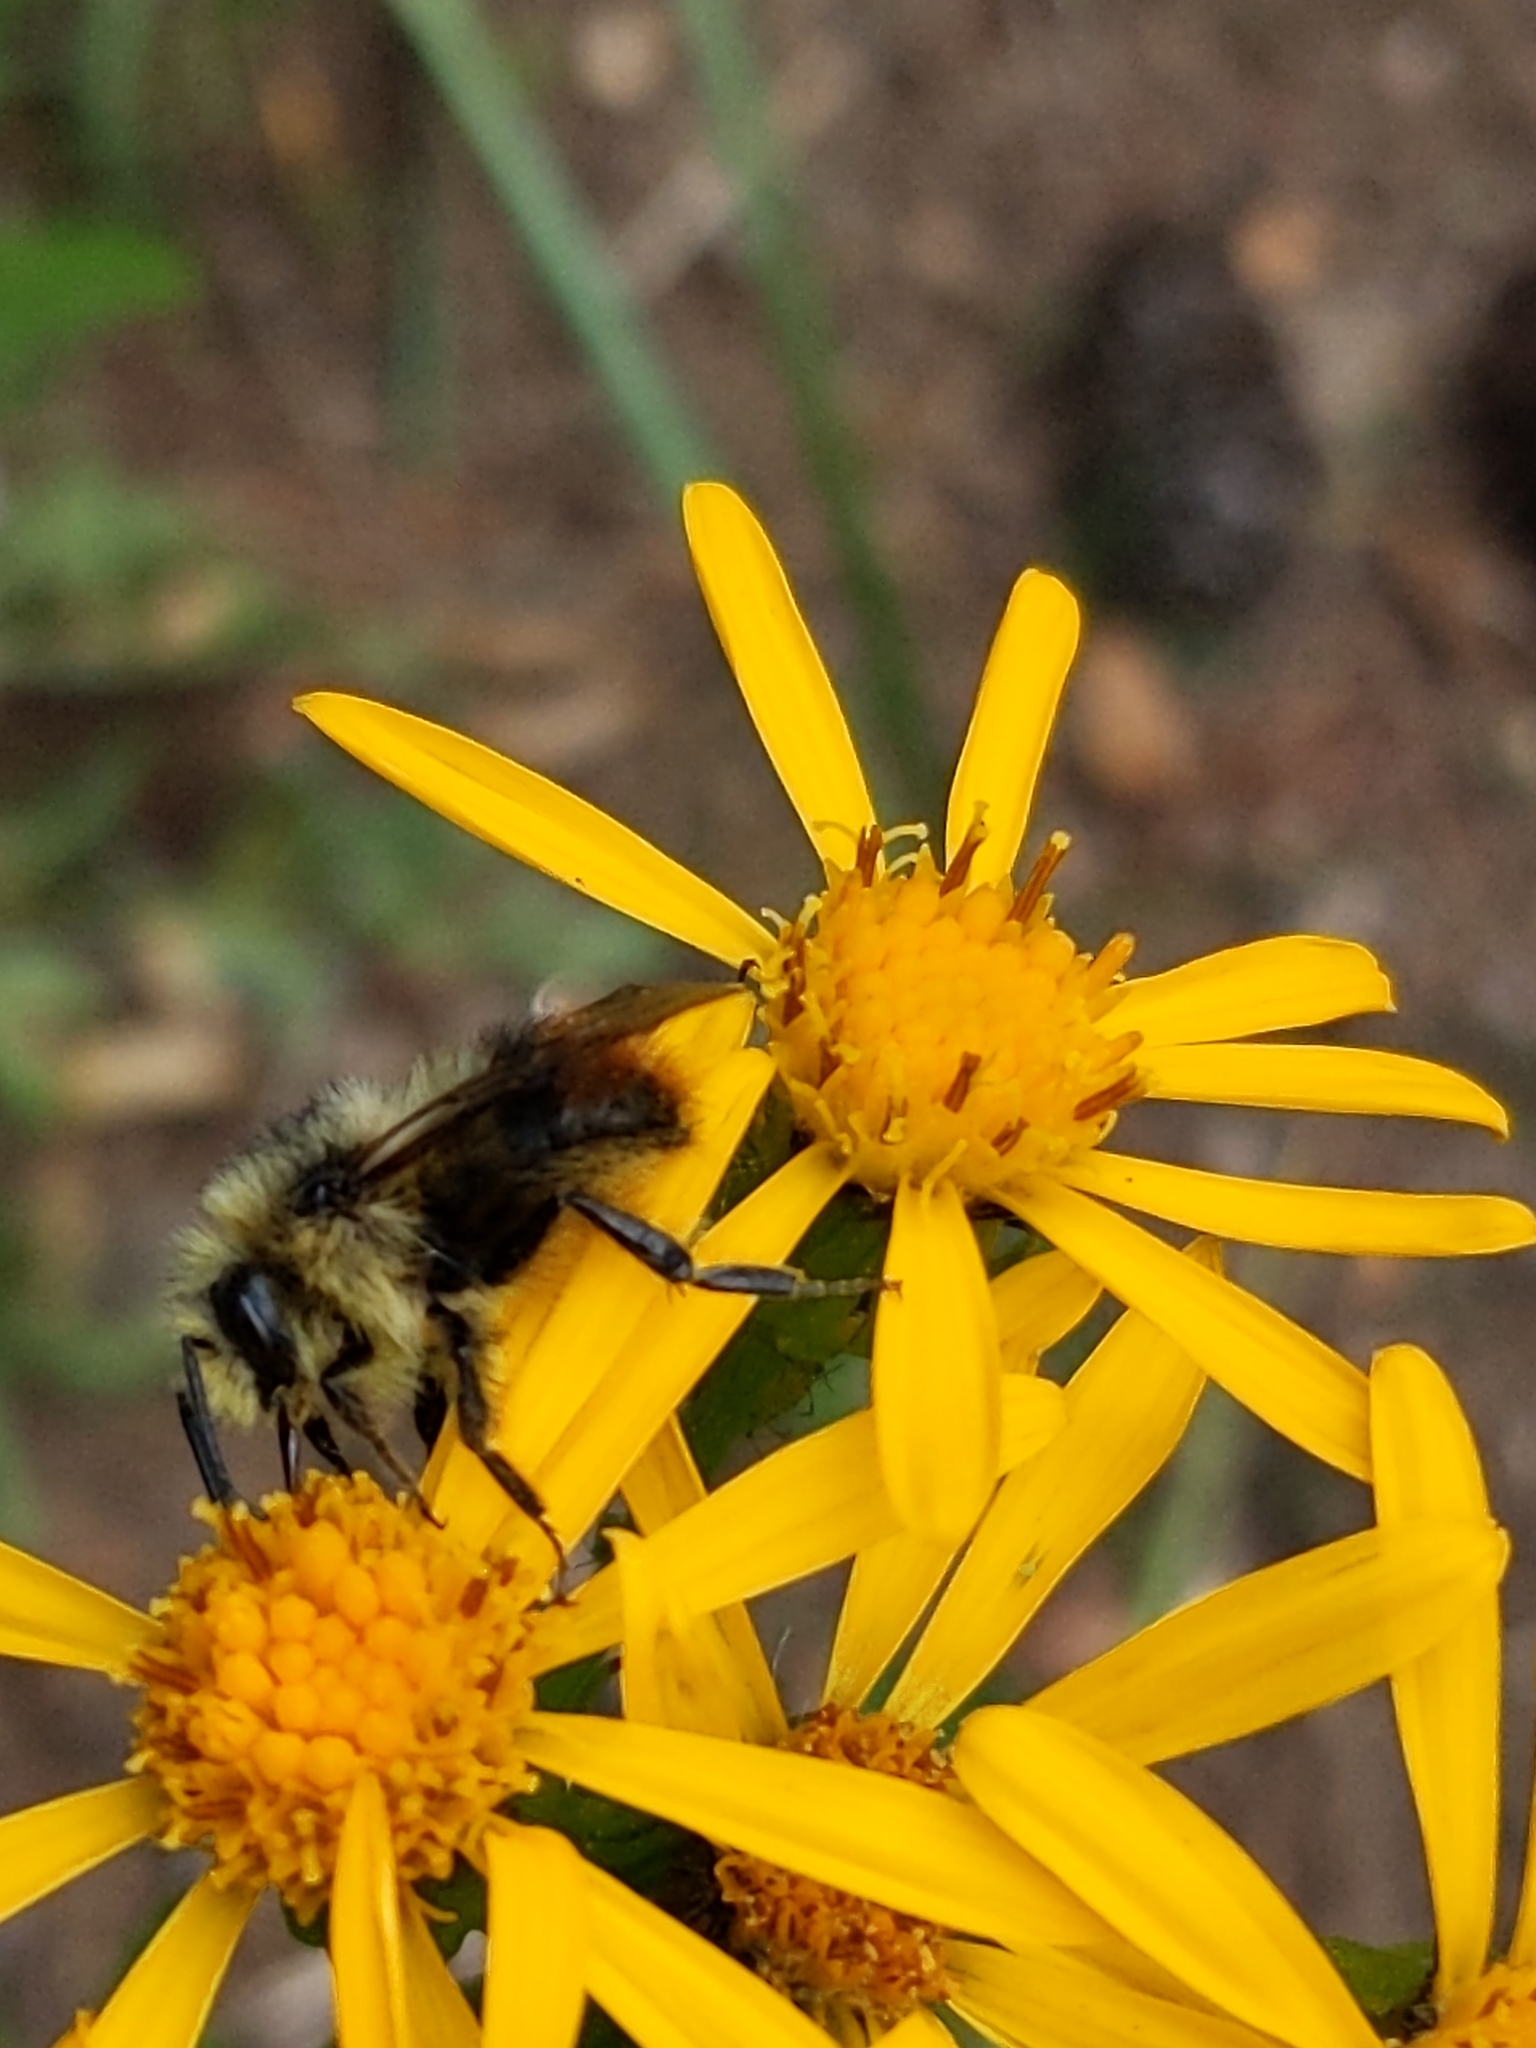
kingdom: Animalia
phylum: Arthropoda
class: Insecta
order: Hymenoptera
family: Apidae
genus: Bombus
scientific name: Bombus mixtus
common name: Fuzzy-horned bumble bee
